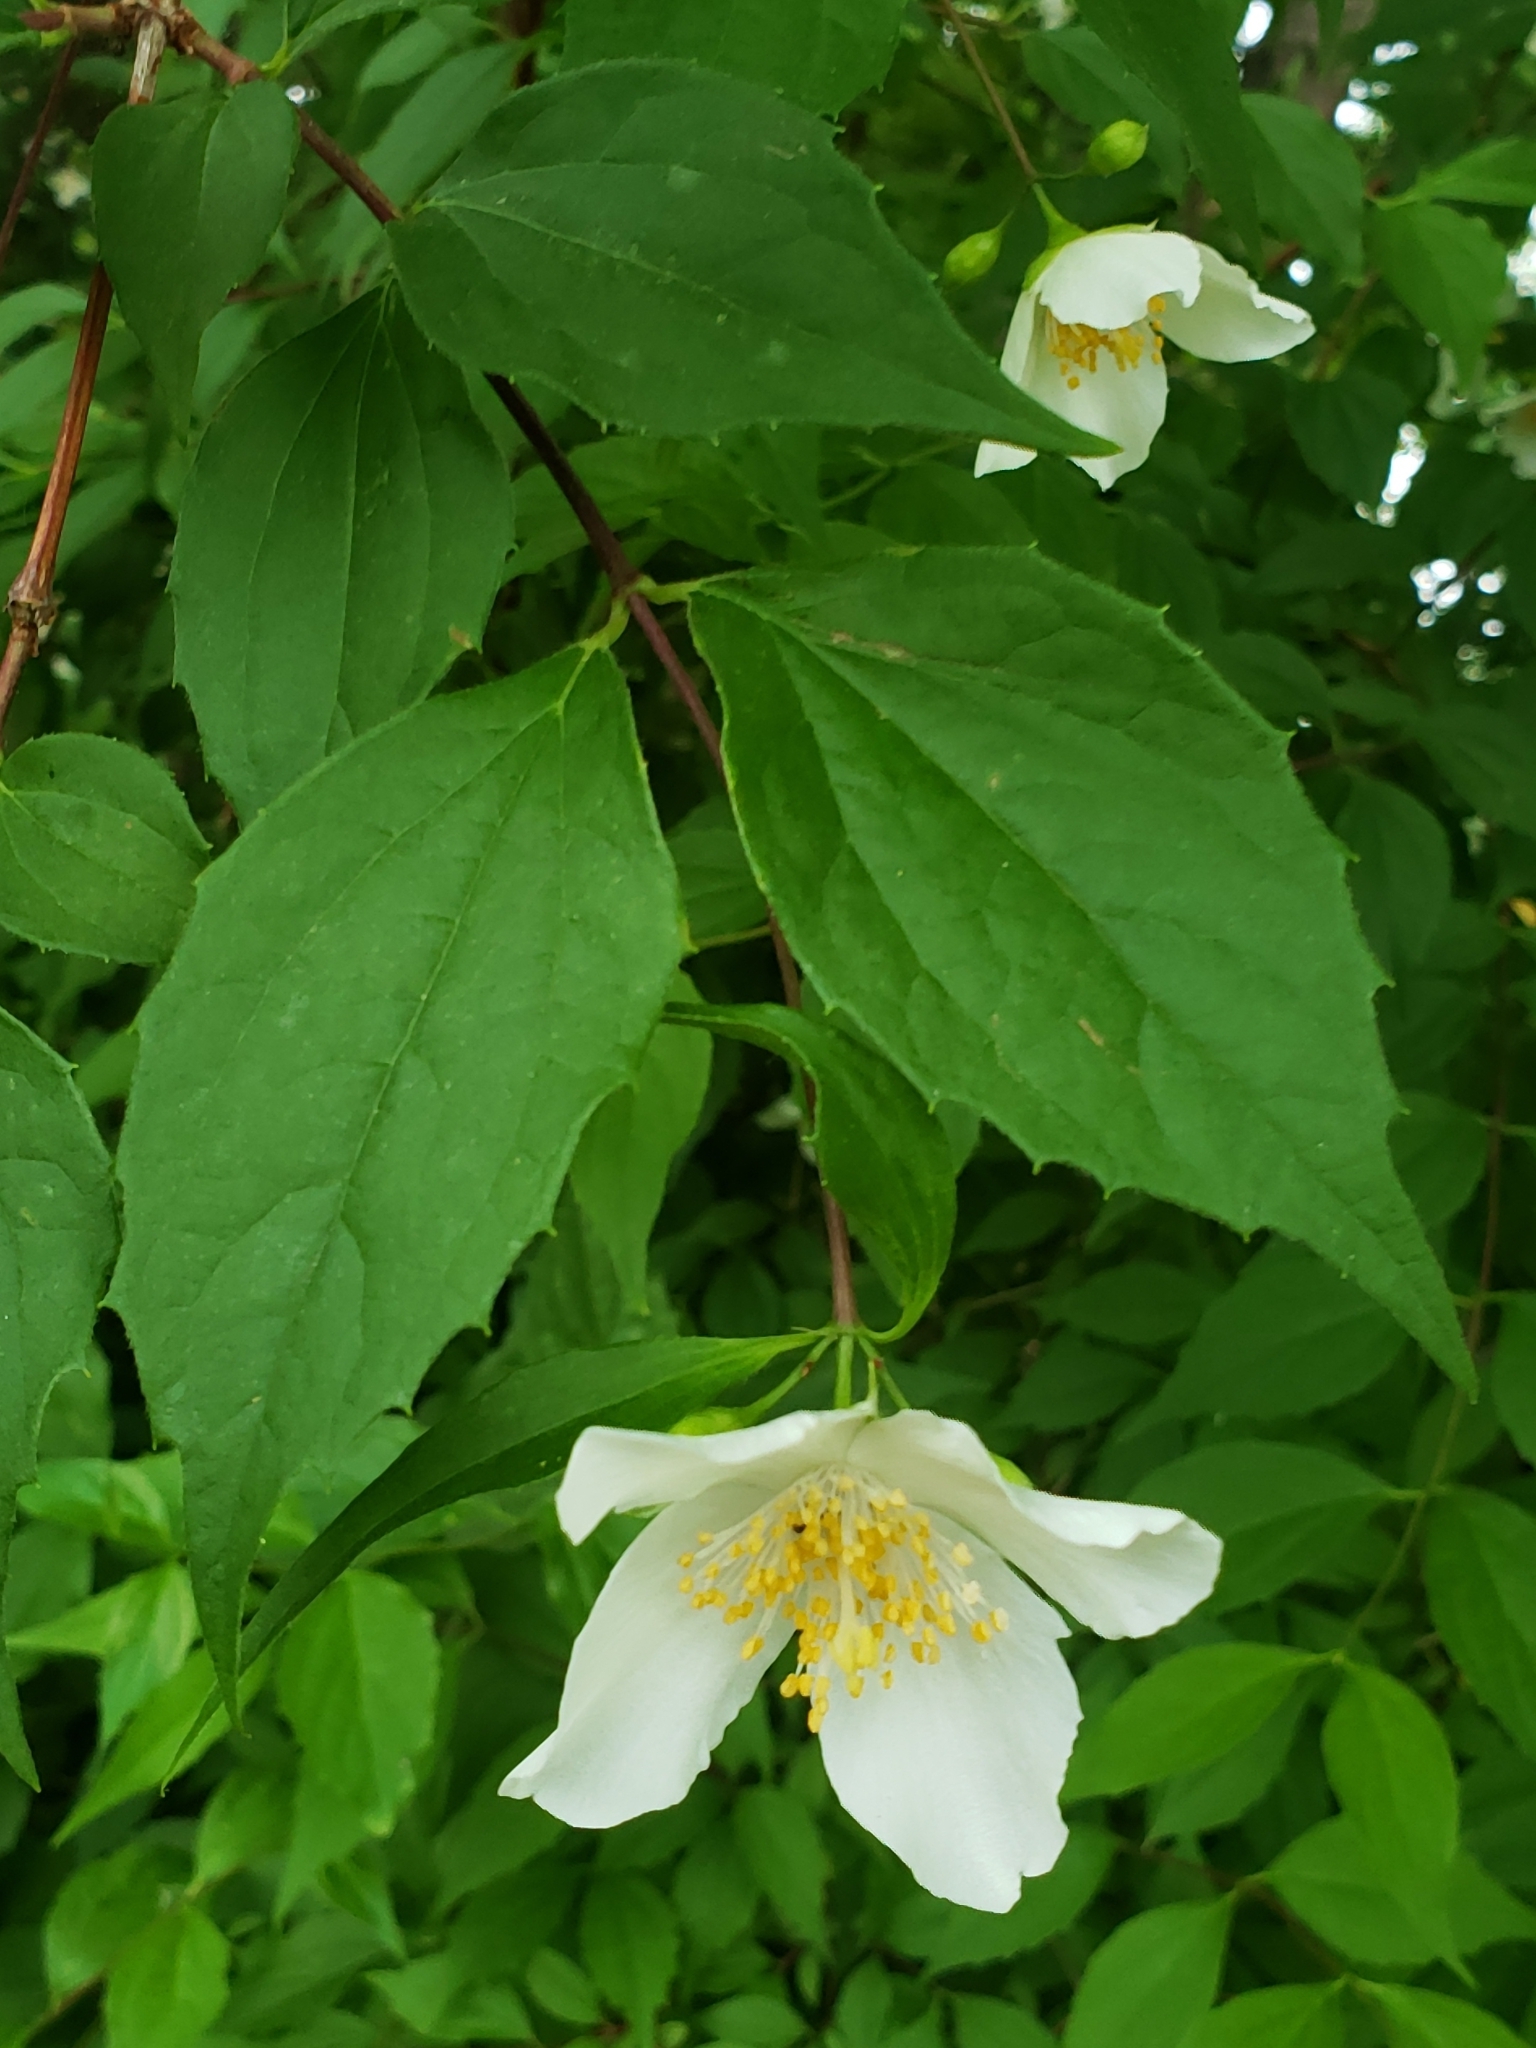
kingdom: Plantae
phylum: Tracheophyta
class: Magnoliopsida
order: Cornales
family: Hydrangeaceae
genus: Philadelphus
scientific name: Philadelphus coronarius
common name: Mock orange
